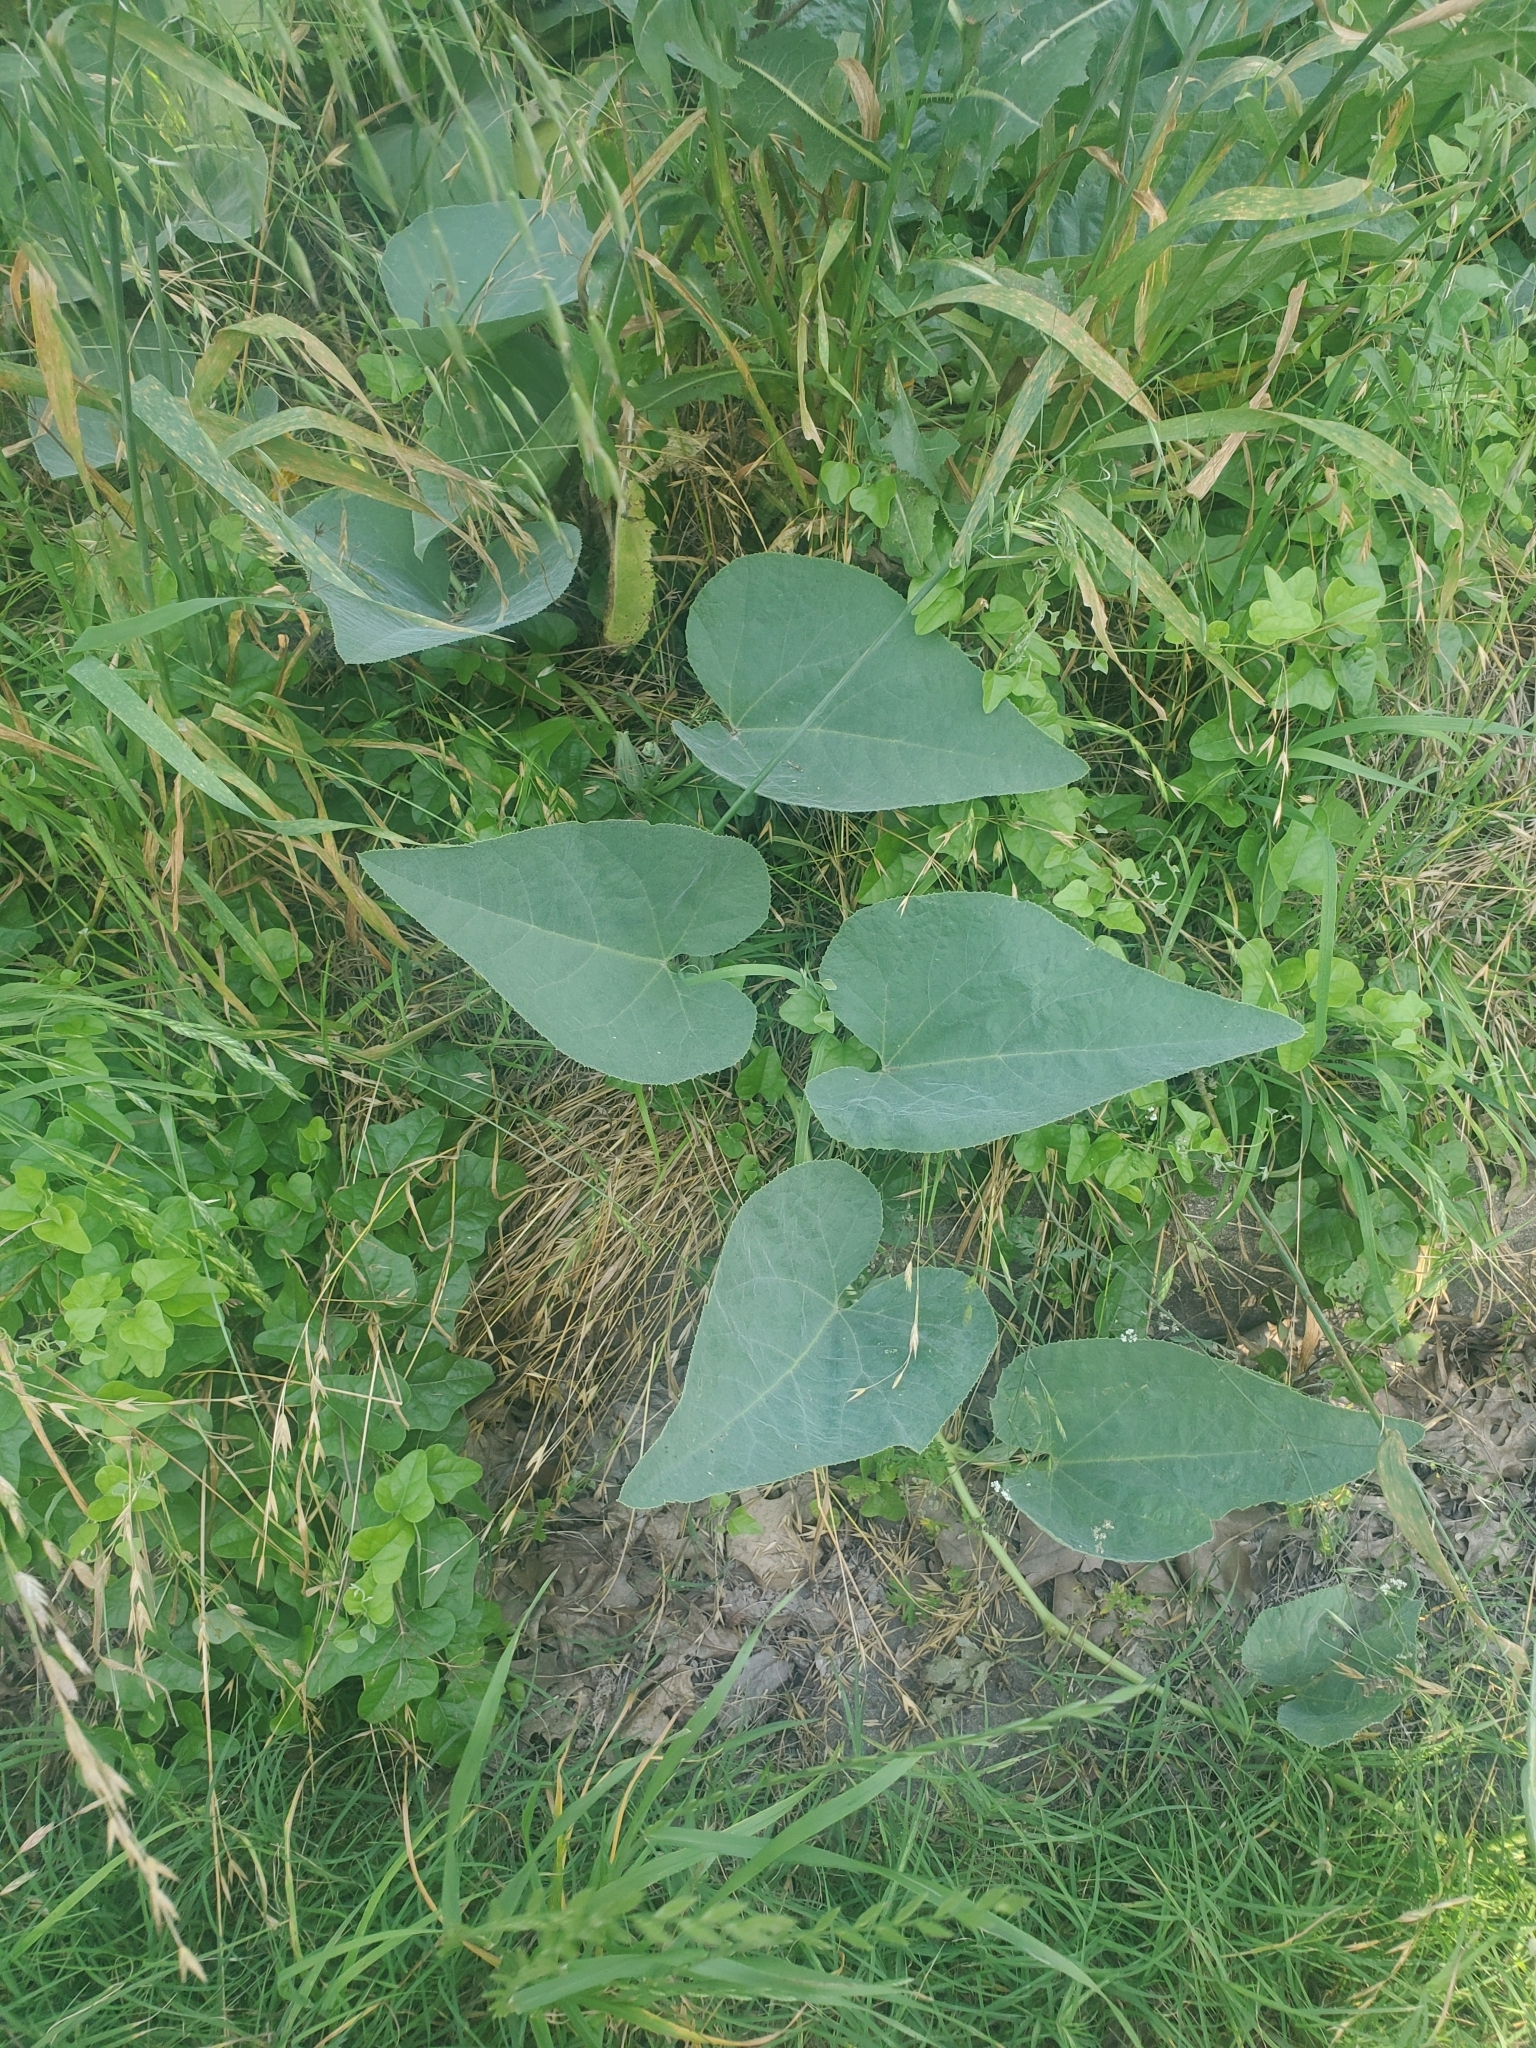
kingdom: Plantae
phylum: Tracheophyta
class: Magnoliopsida
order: Cucurbitales
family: Cucurbitaceae
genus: Cucurbita
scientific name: Cucurbita foetidissima
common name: Buffalo gourd
